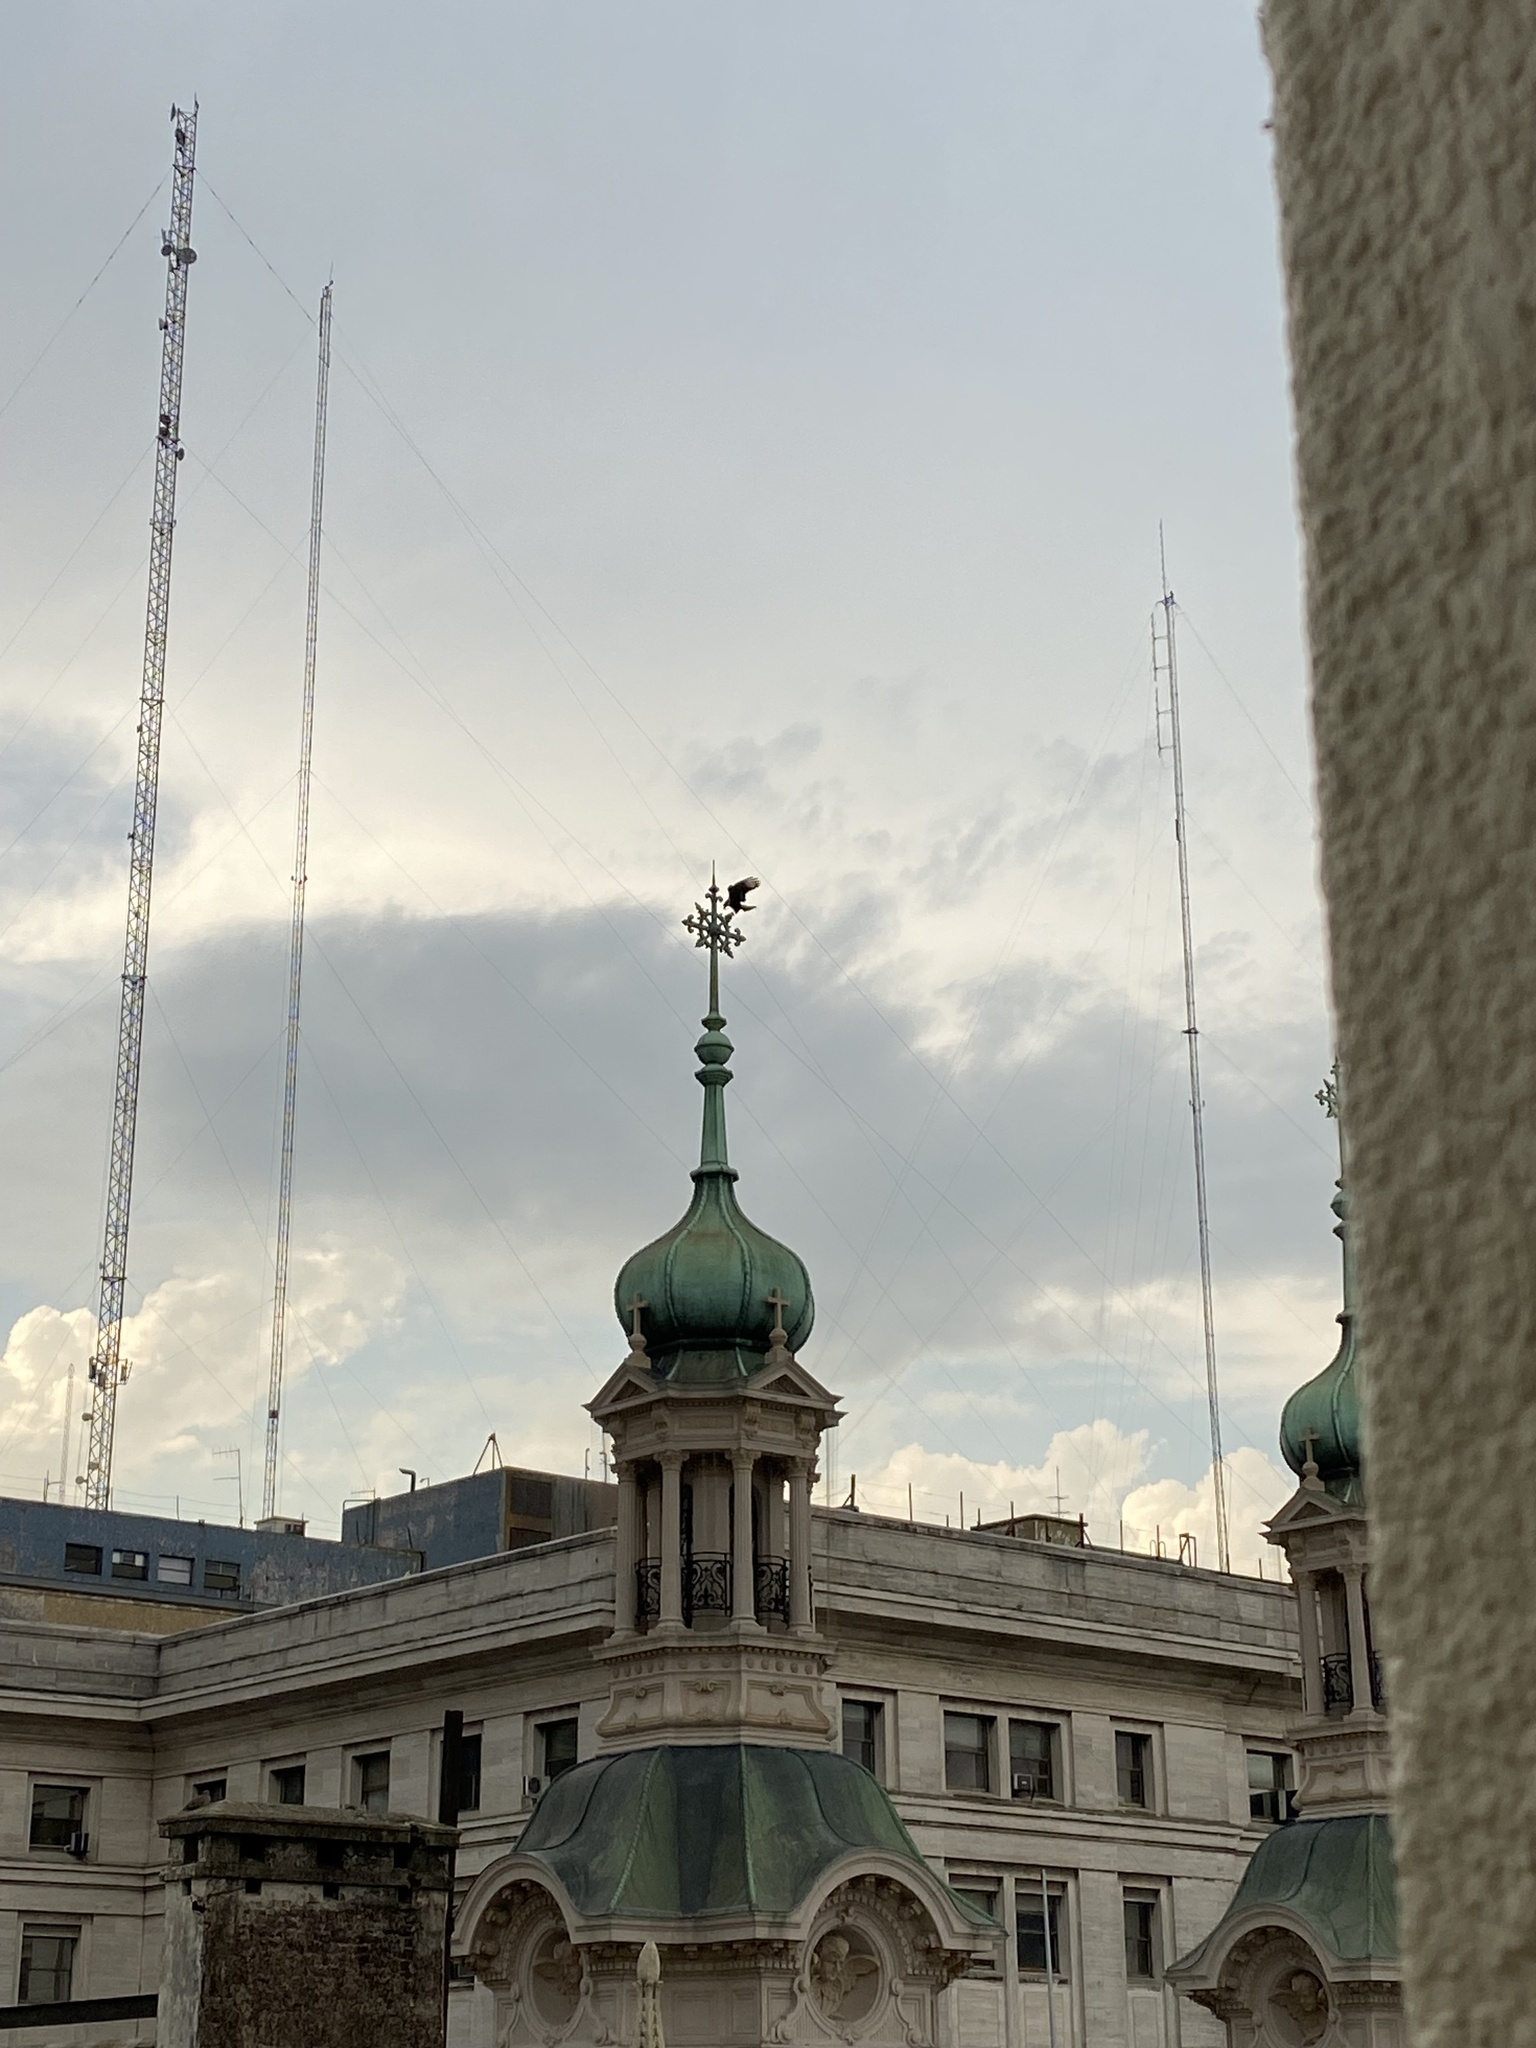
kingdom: Animalia
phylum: Chordata
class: Aves
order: Falconiformes
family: Falconidae
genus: Caracara
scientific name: Caracara plancus
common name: Southern caracara
